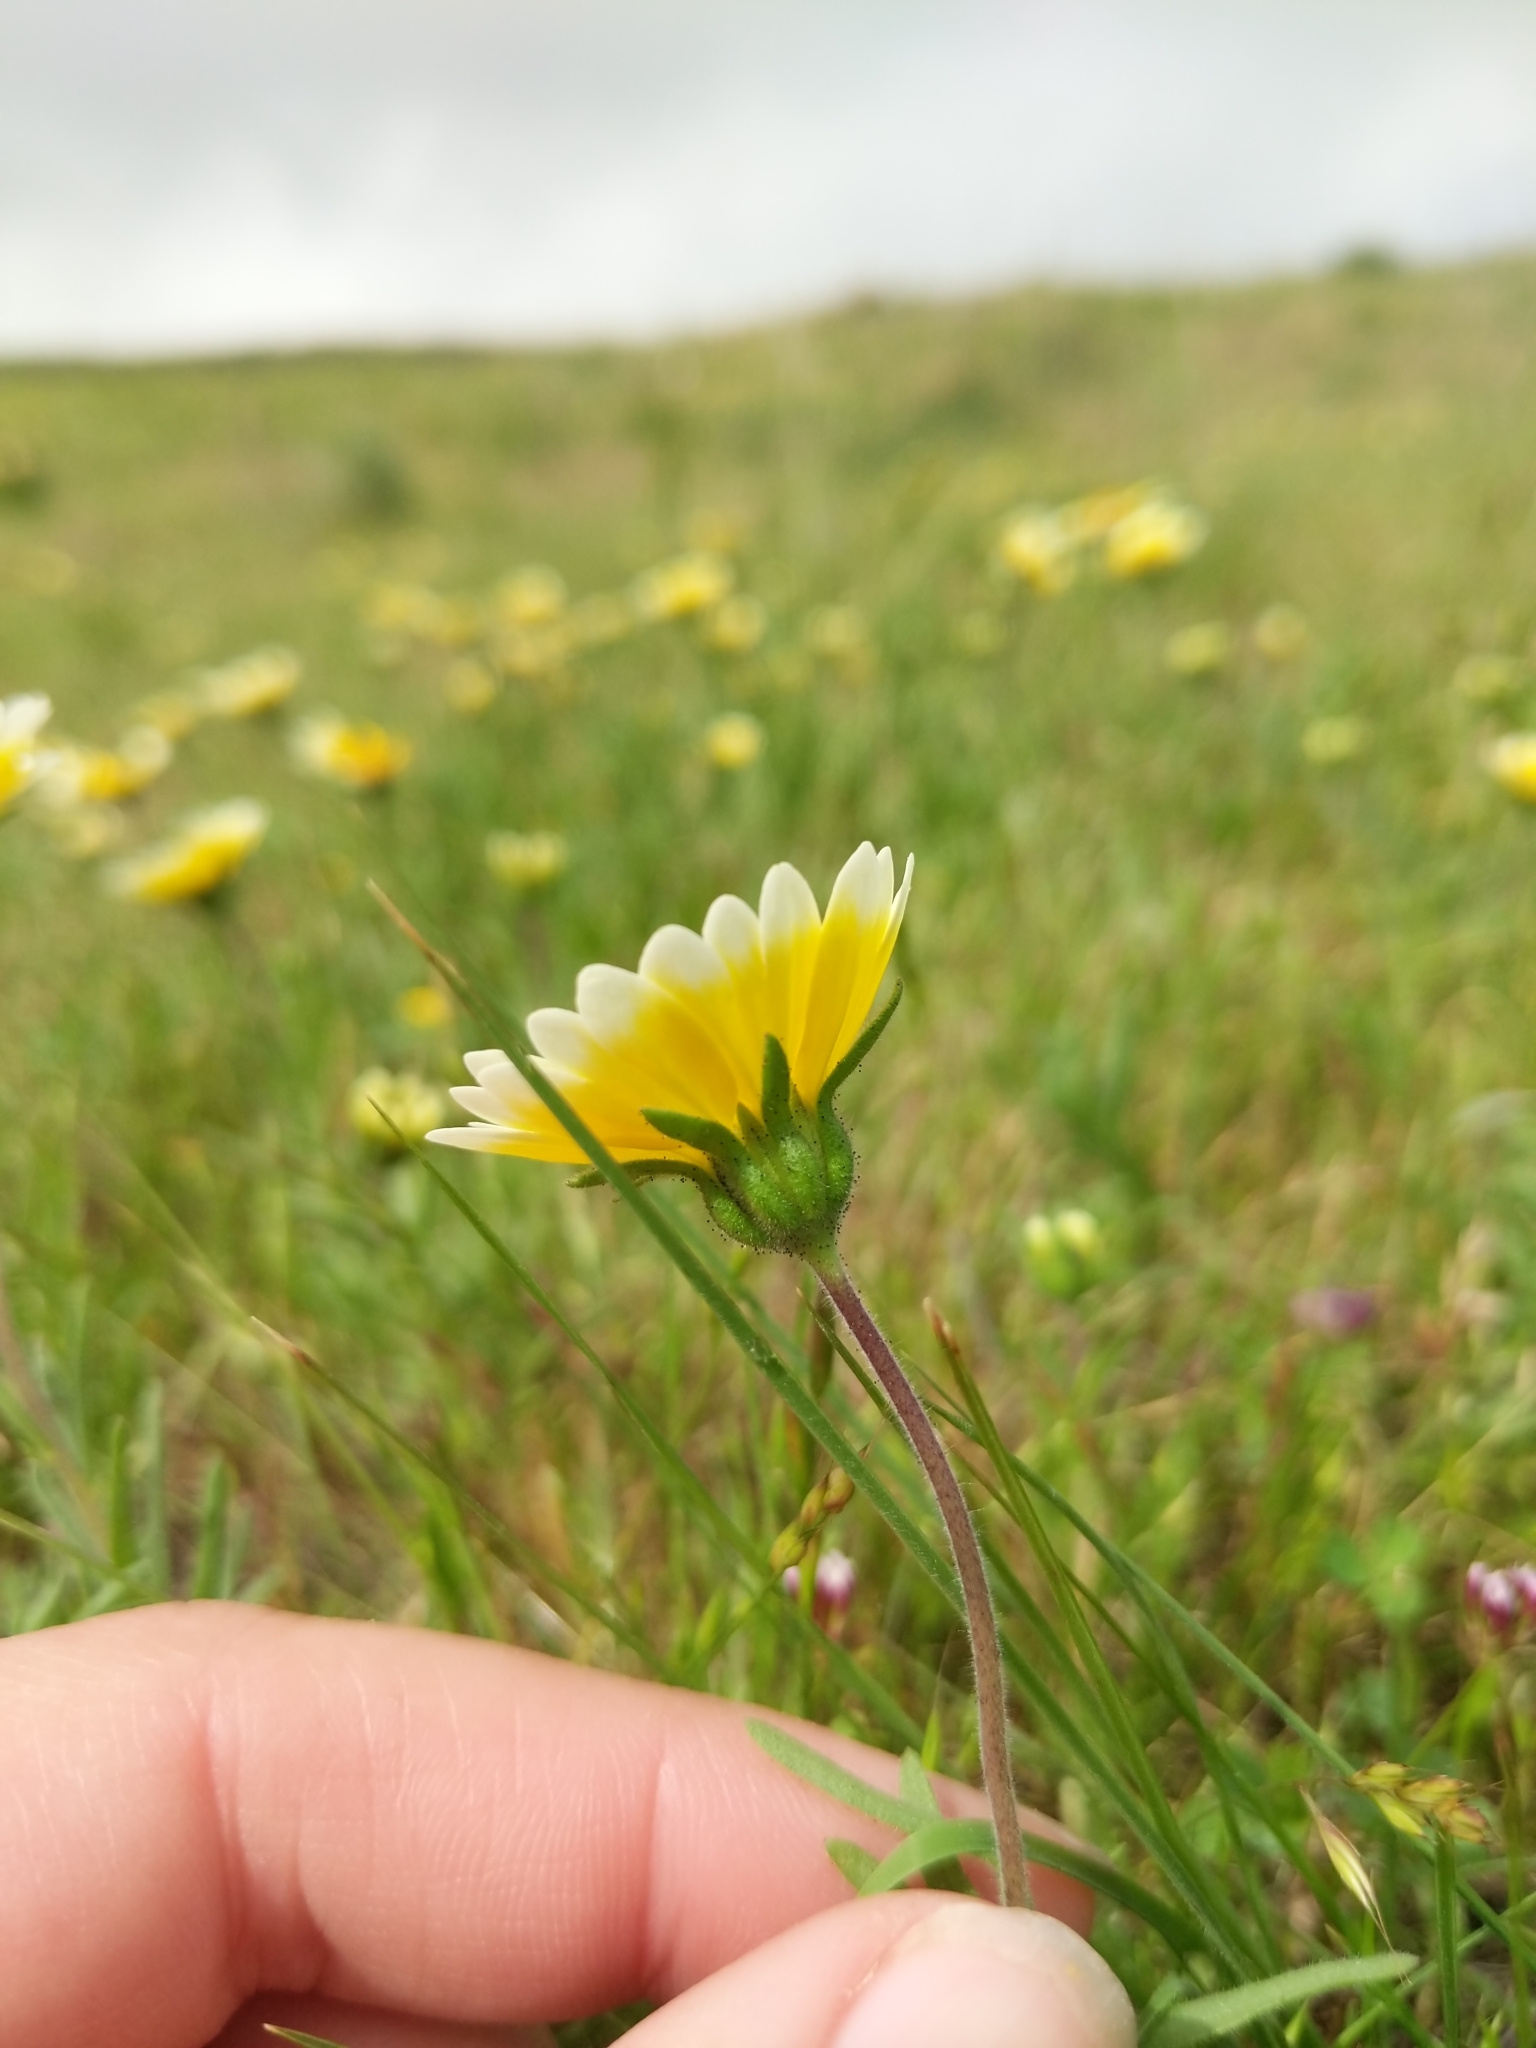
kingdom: Plantae
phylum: Tracheophyta
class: Magnoliopsida
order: Asterales
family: Asteraceae
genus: Layia
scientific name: Layia platyglossa
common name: Tidy-tips
